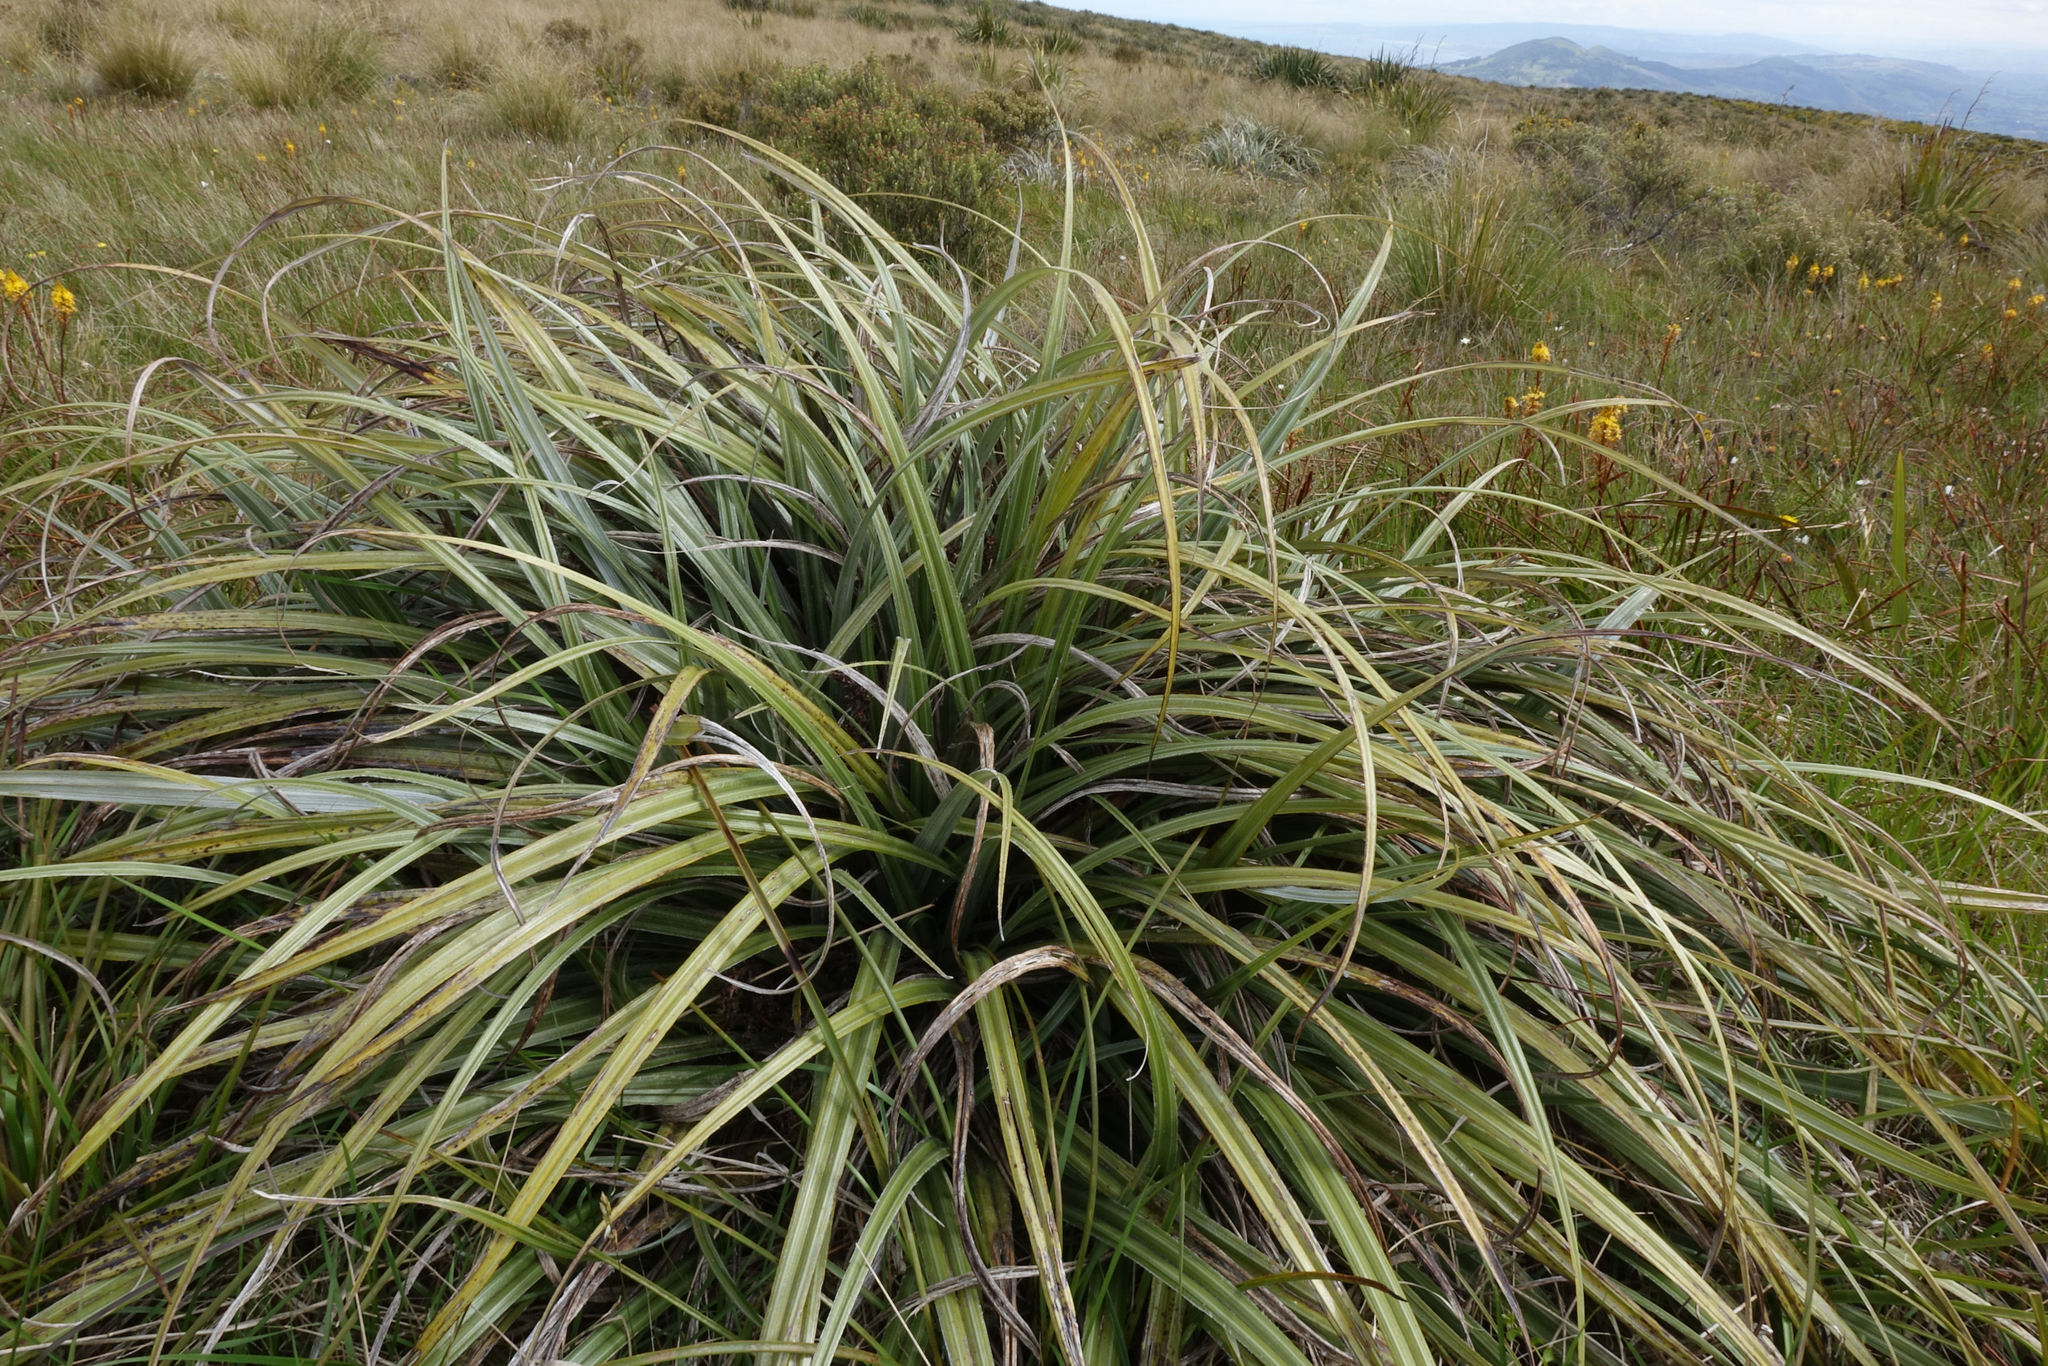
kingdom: Plantae
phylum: Tracheophyta
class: Liliopsida
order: Asparagales
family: Asteliaceae
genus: Astelia
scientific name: Astelia nervosa
